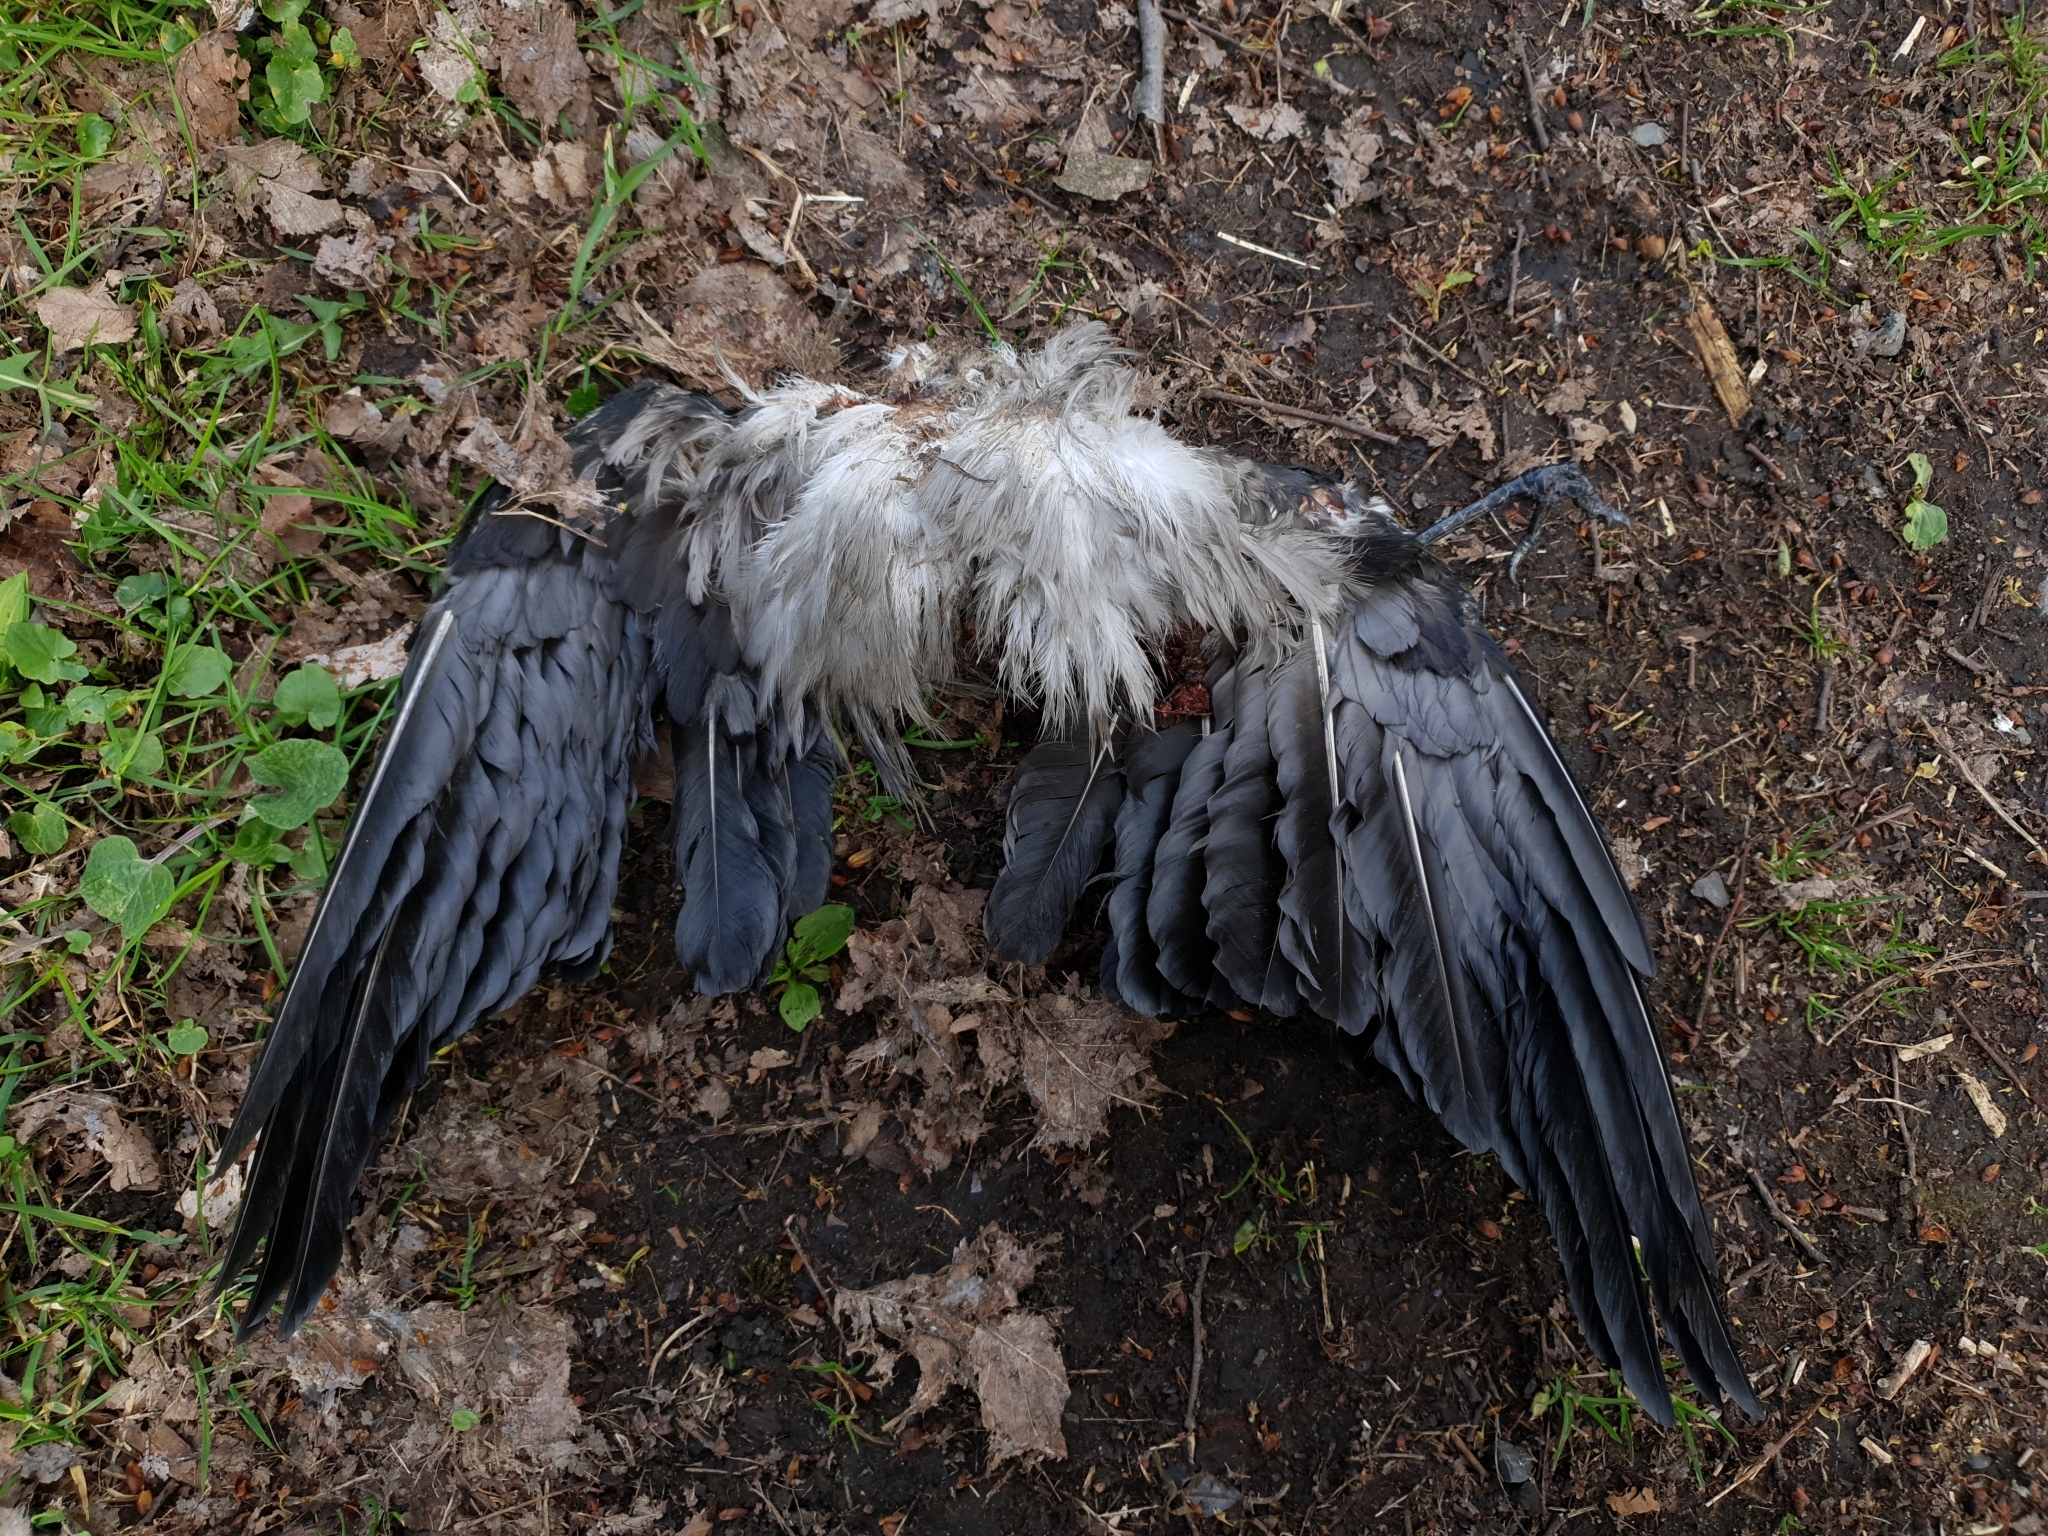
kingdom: Animalia
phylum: Chordata
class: Aves
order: Passeriformes
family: Corvidae
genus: Corvus
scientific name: Corvus cornix
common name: Hooded crow
